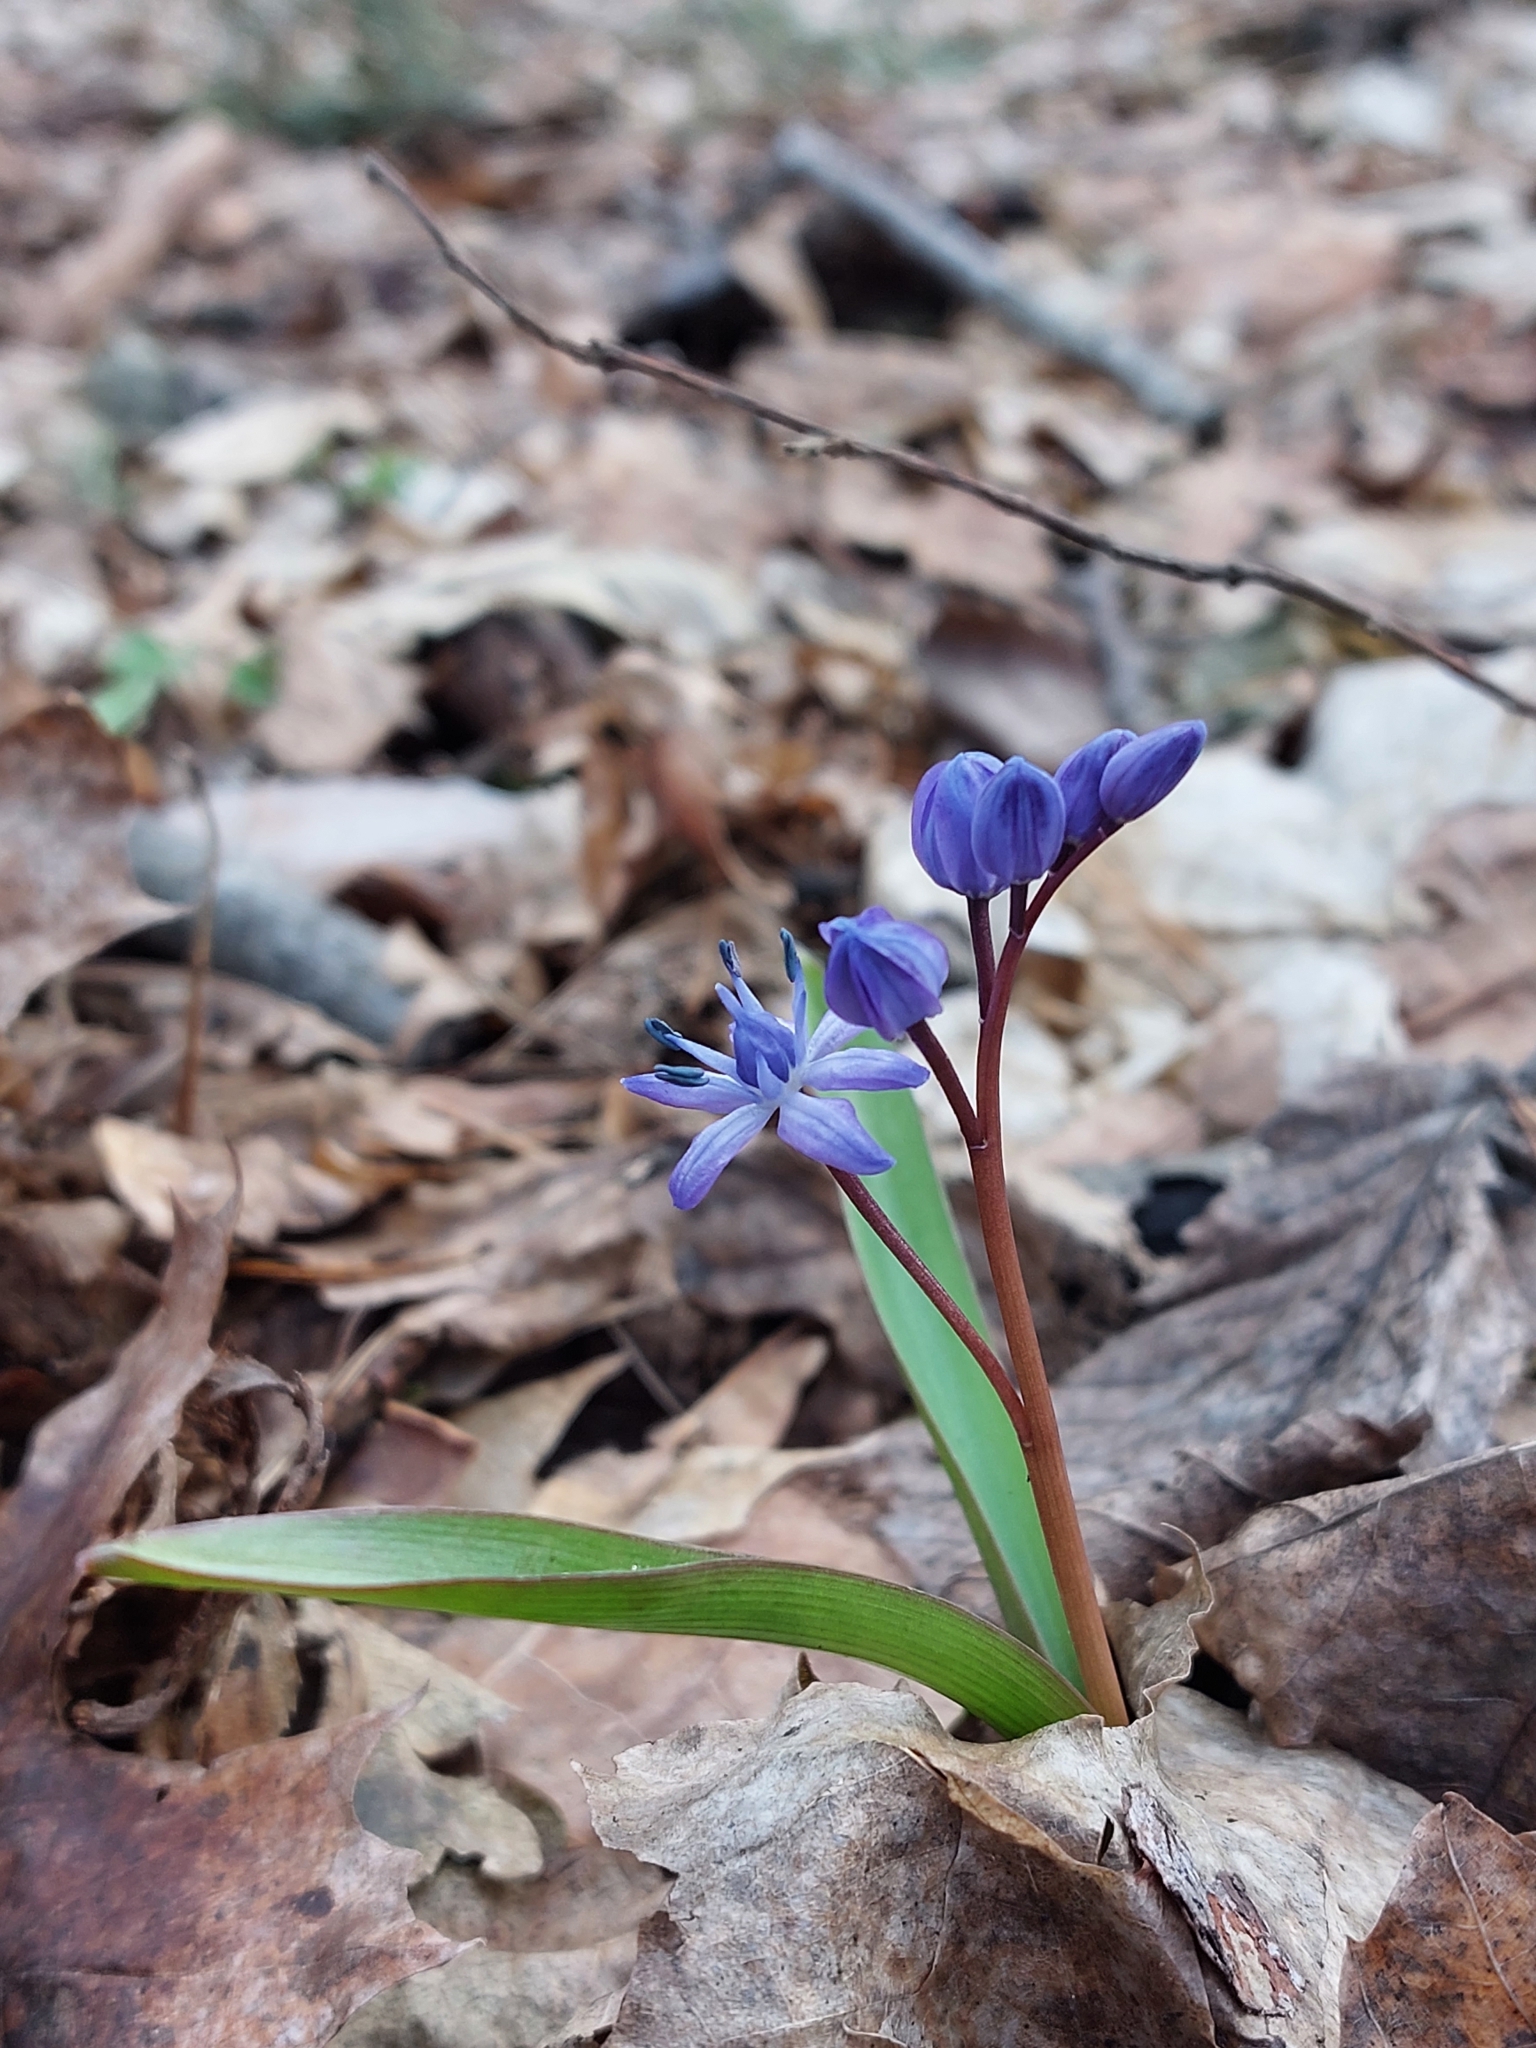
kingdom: Plantae
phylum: Tracheophyta
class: Liliopsida
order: Asparagales
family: Asparagaceae
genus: Scilla
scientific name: Scilla bifolia
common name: Alpine squill
